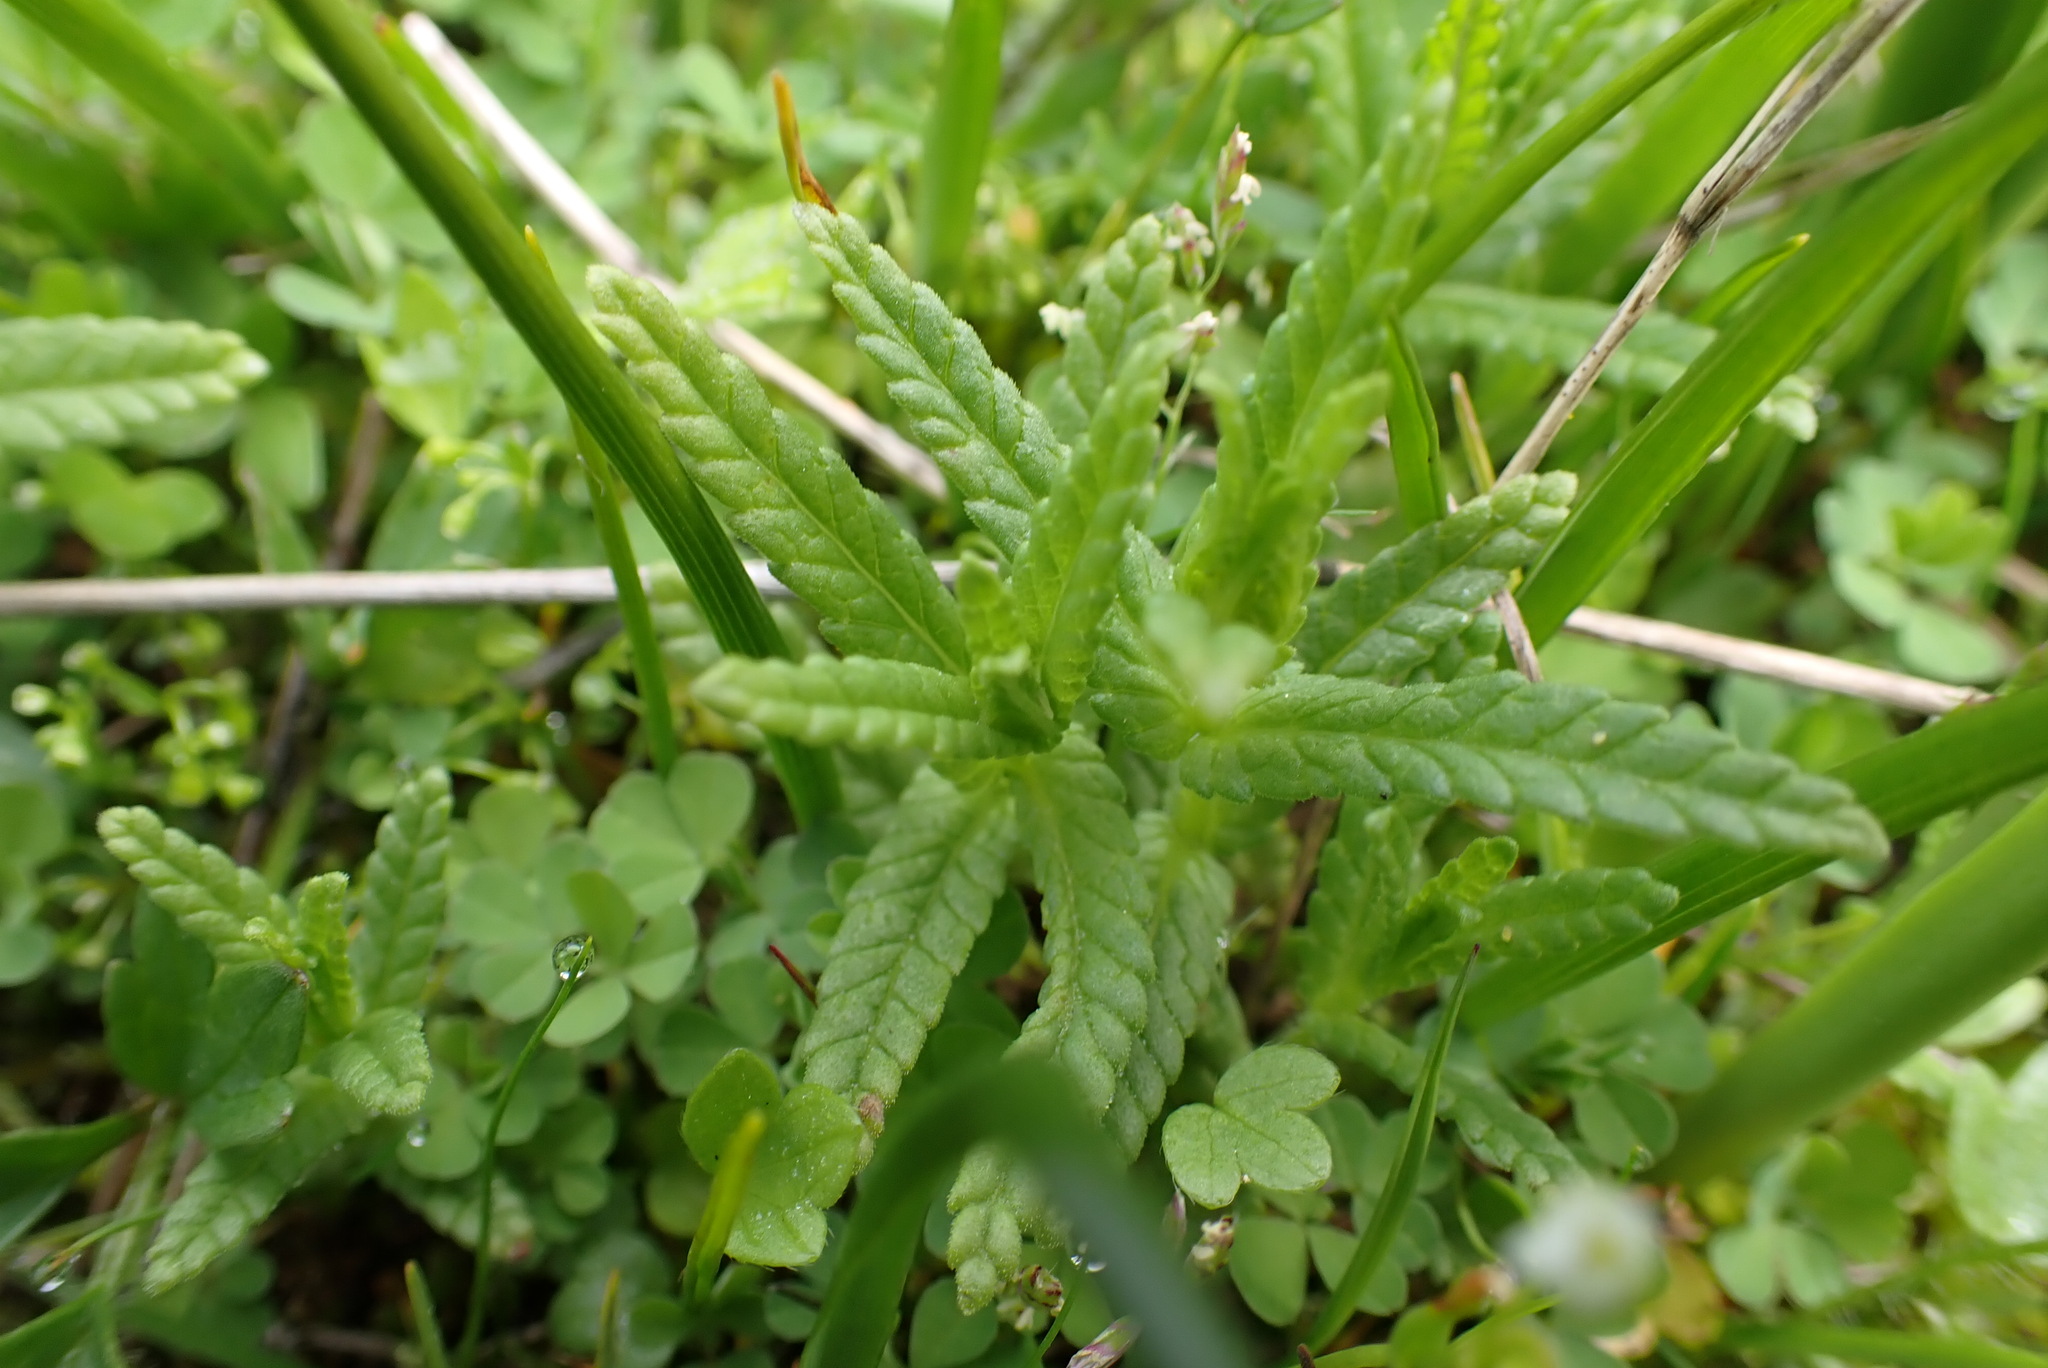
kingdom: Plantae
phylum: Tracheophyta
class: Magnoliopsida
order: Lamiales
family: Orobanchaceae
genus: Rhinanthus
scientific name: Rhinanthus minor
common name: Yellow-rattle
